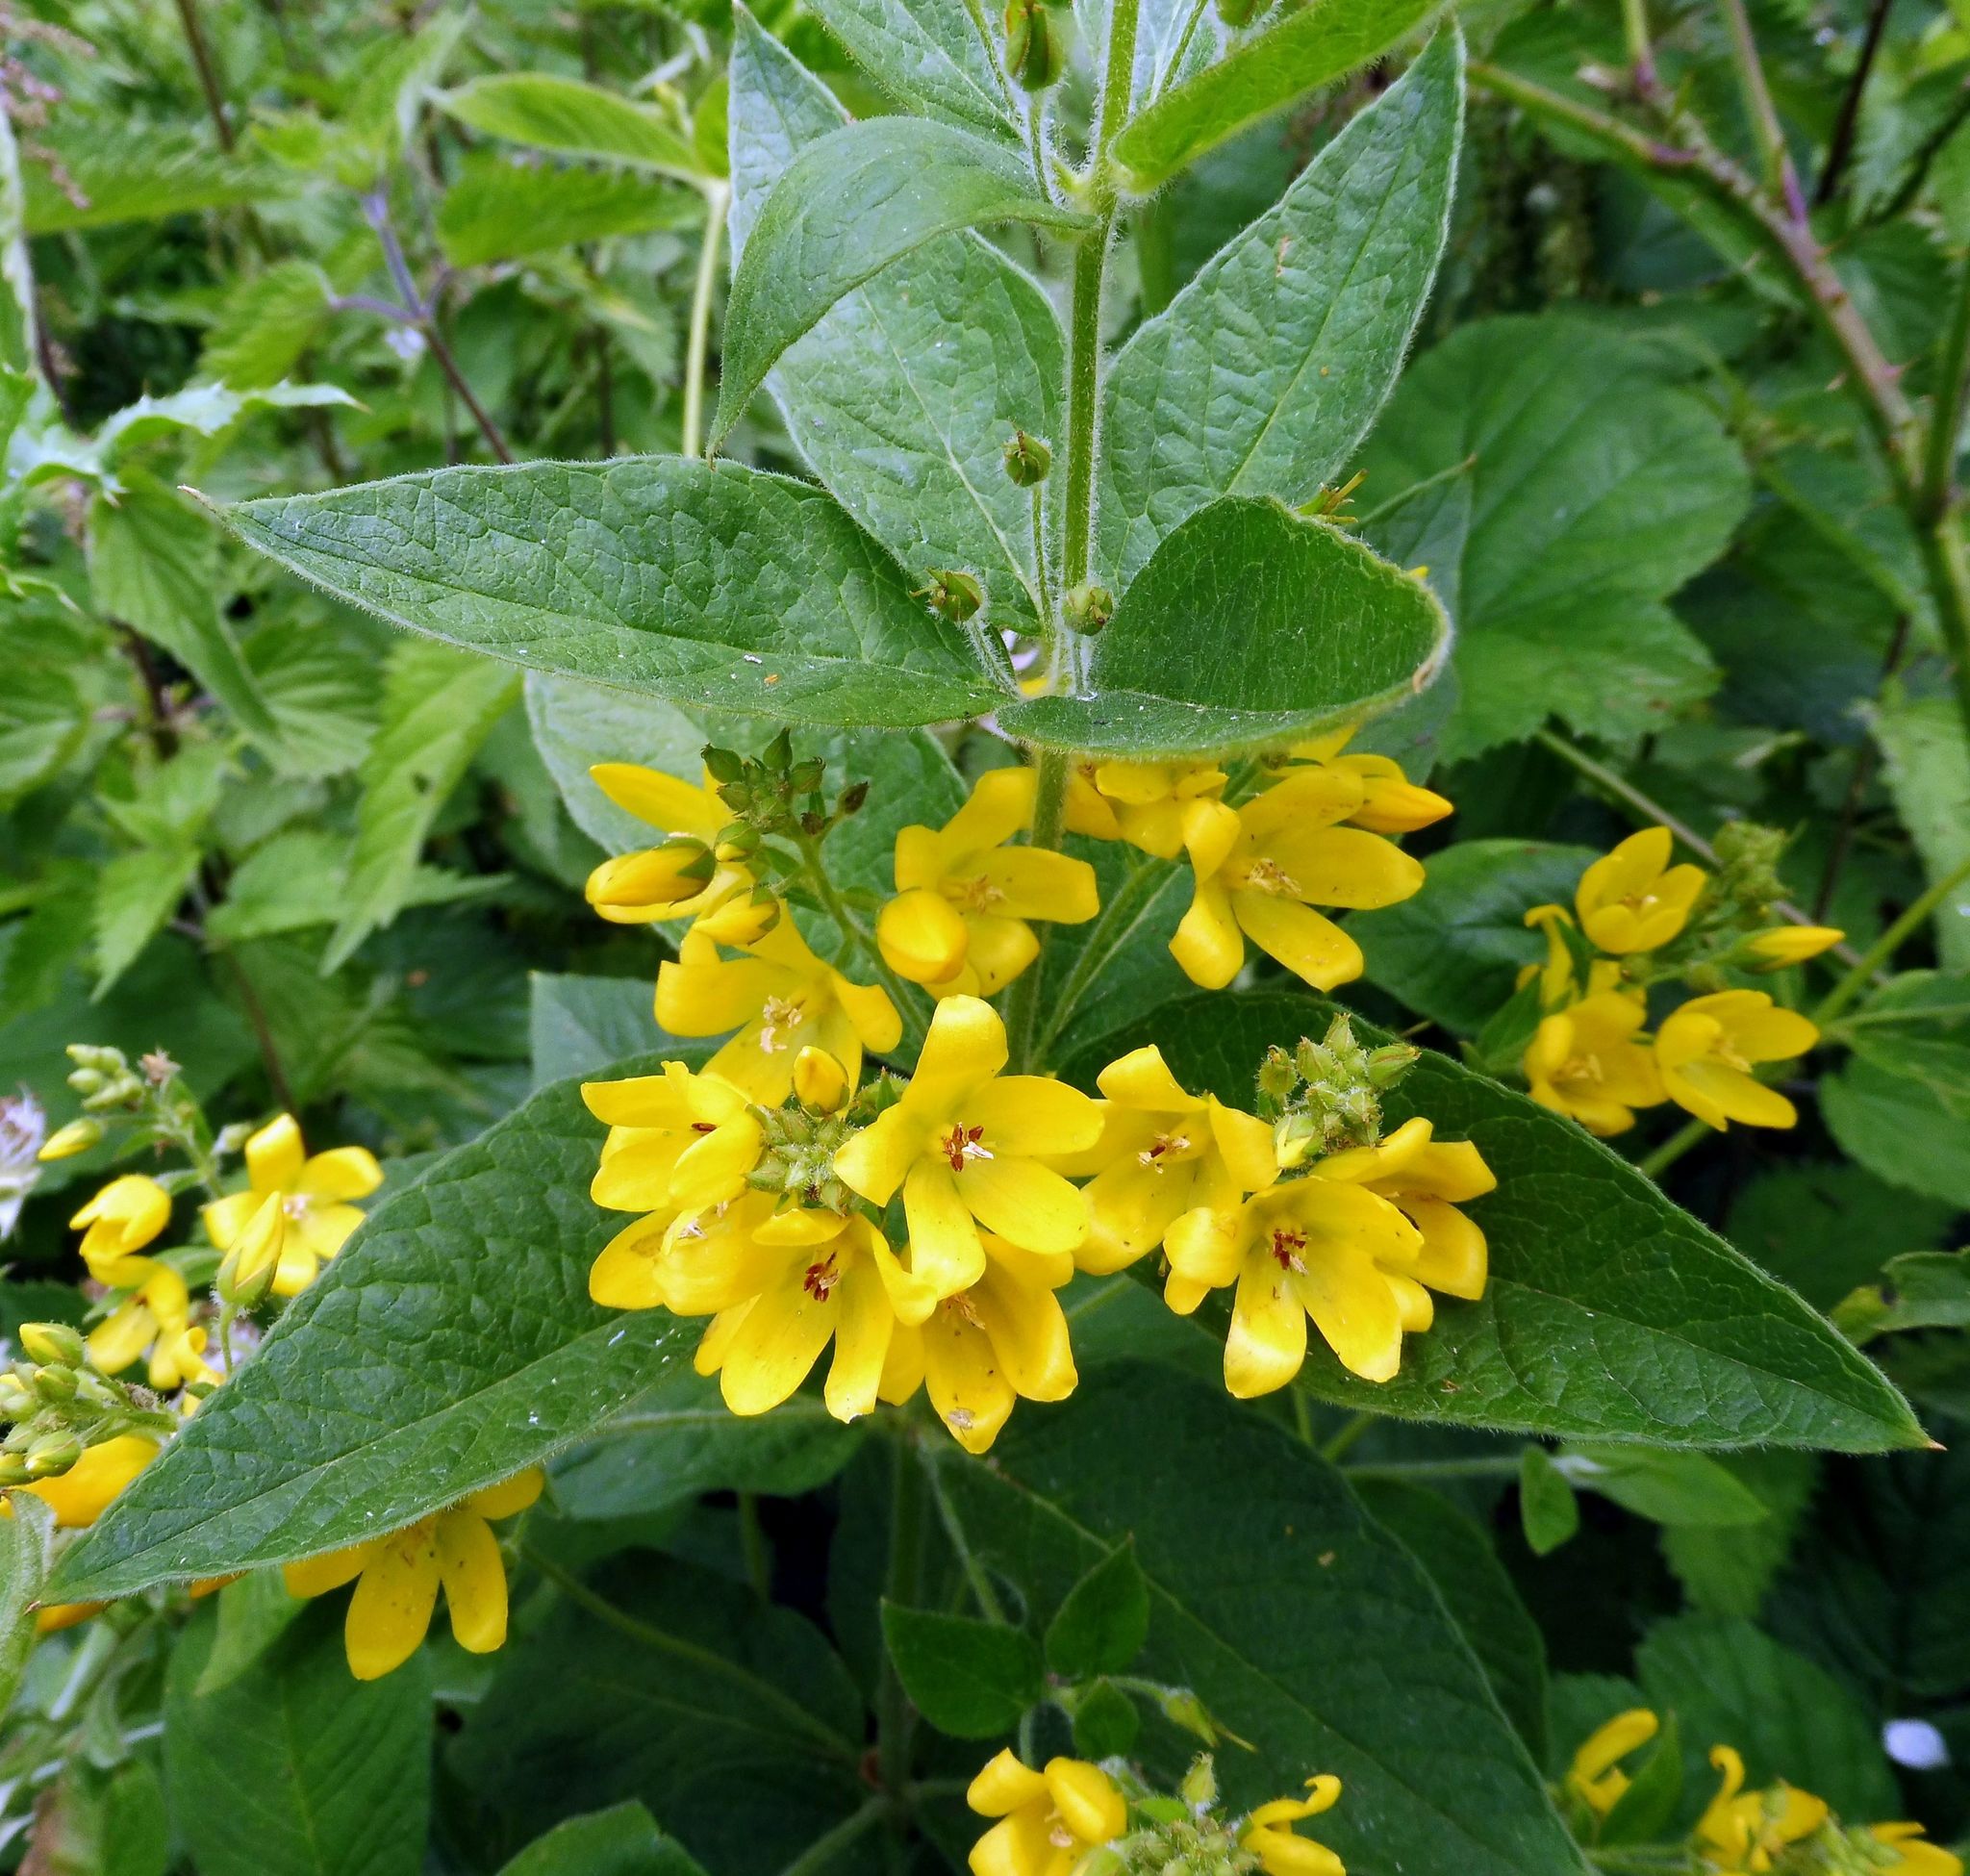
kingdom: Plantae
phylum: Tracheophyta
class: Magnoliopsida
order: Ericales
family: Primulaceae
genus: Lysimachia
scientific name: Lysimachia vulgaris
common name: Yellow loosestrife
